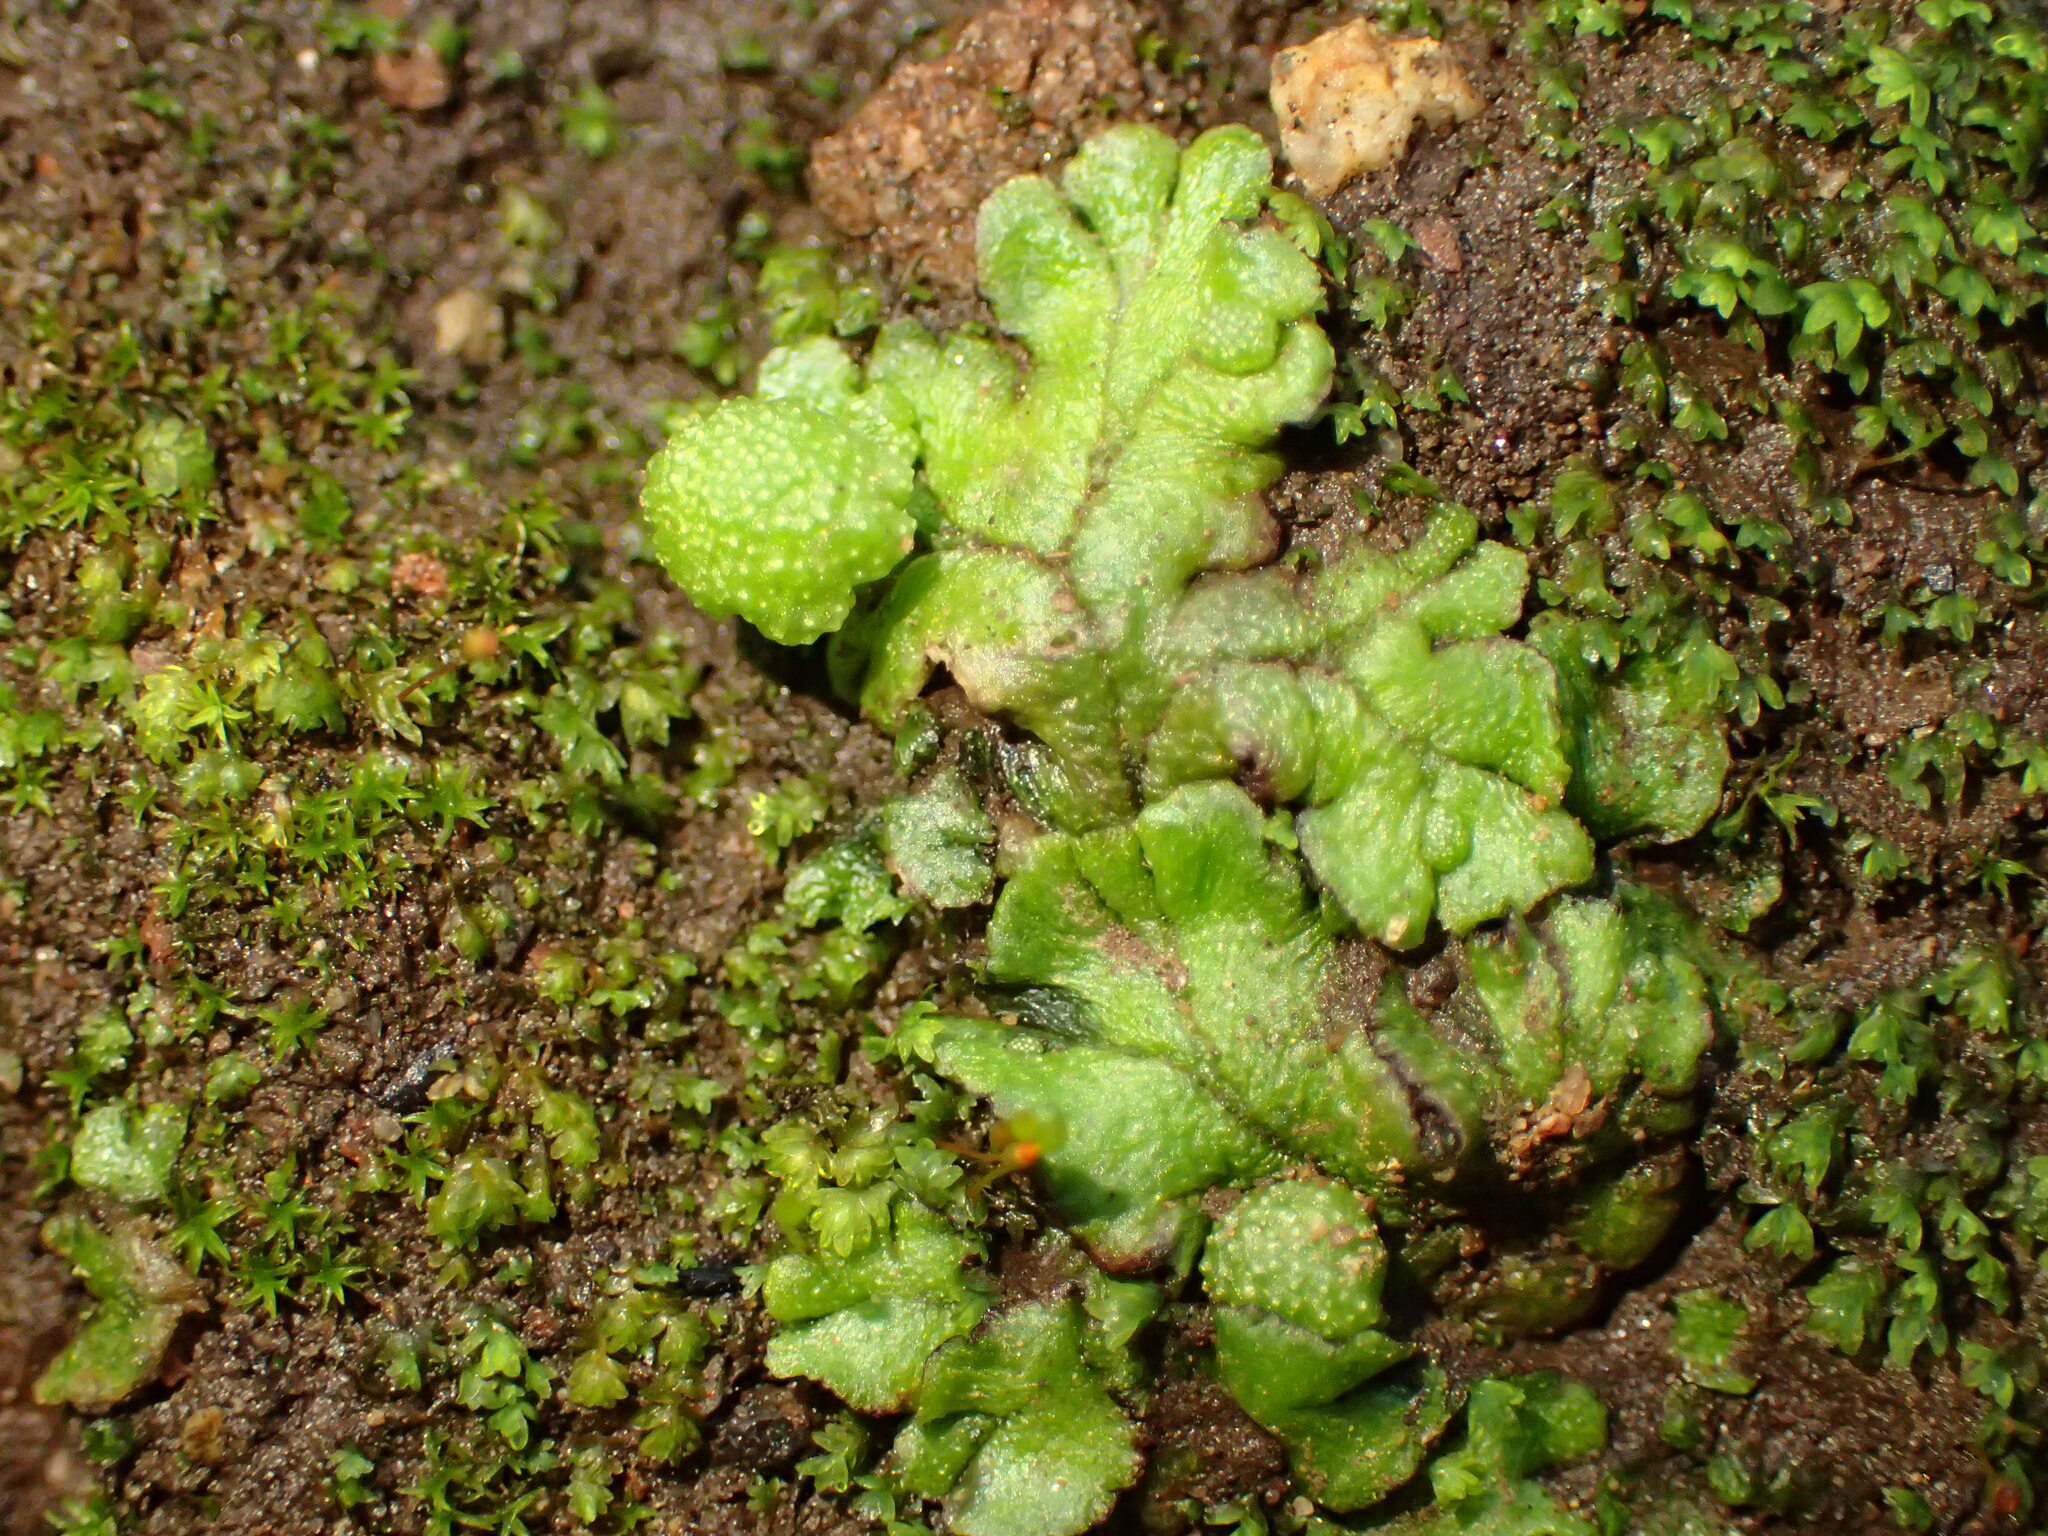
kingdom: Plantae
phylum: Marchantiophyta
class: Marchantiopsida
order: Marchantiales
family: Aytoniaceae
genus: Cryptomitrium
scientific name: Cryptomitrium tenerum
